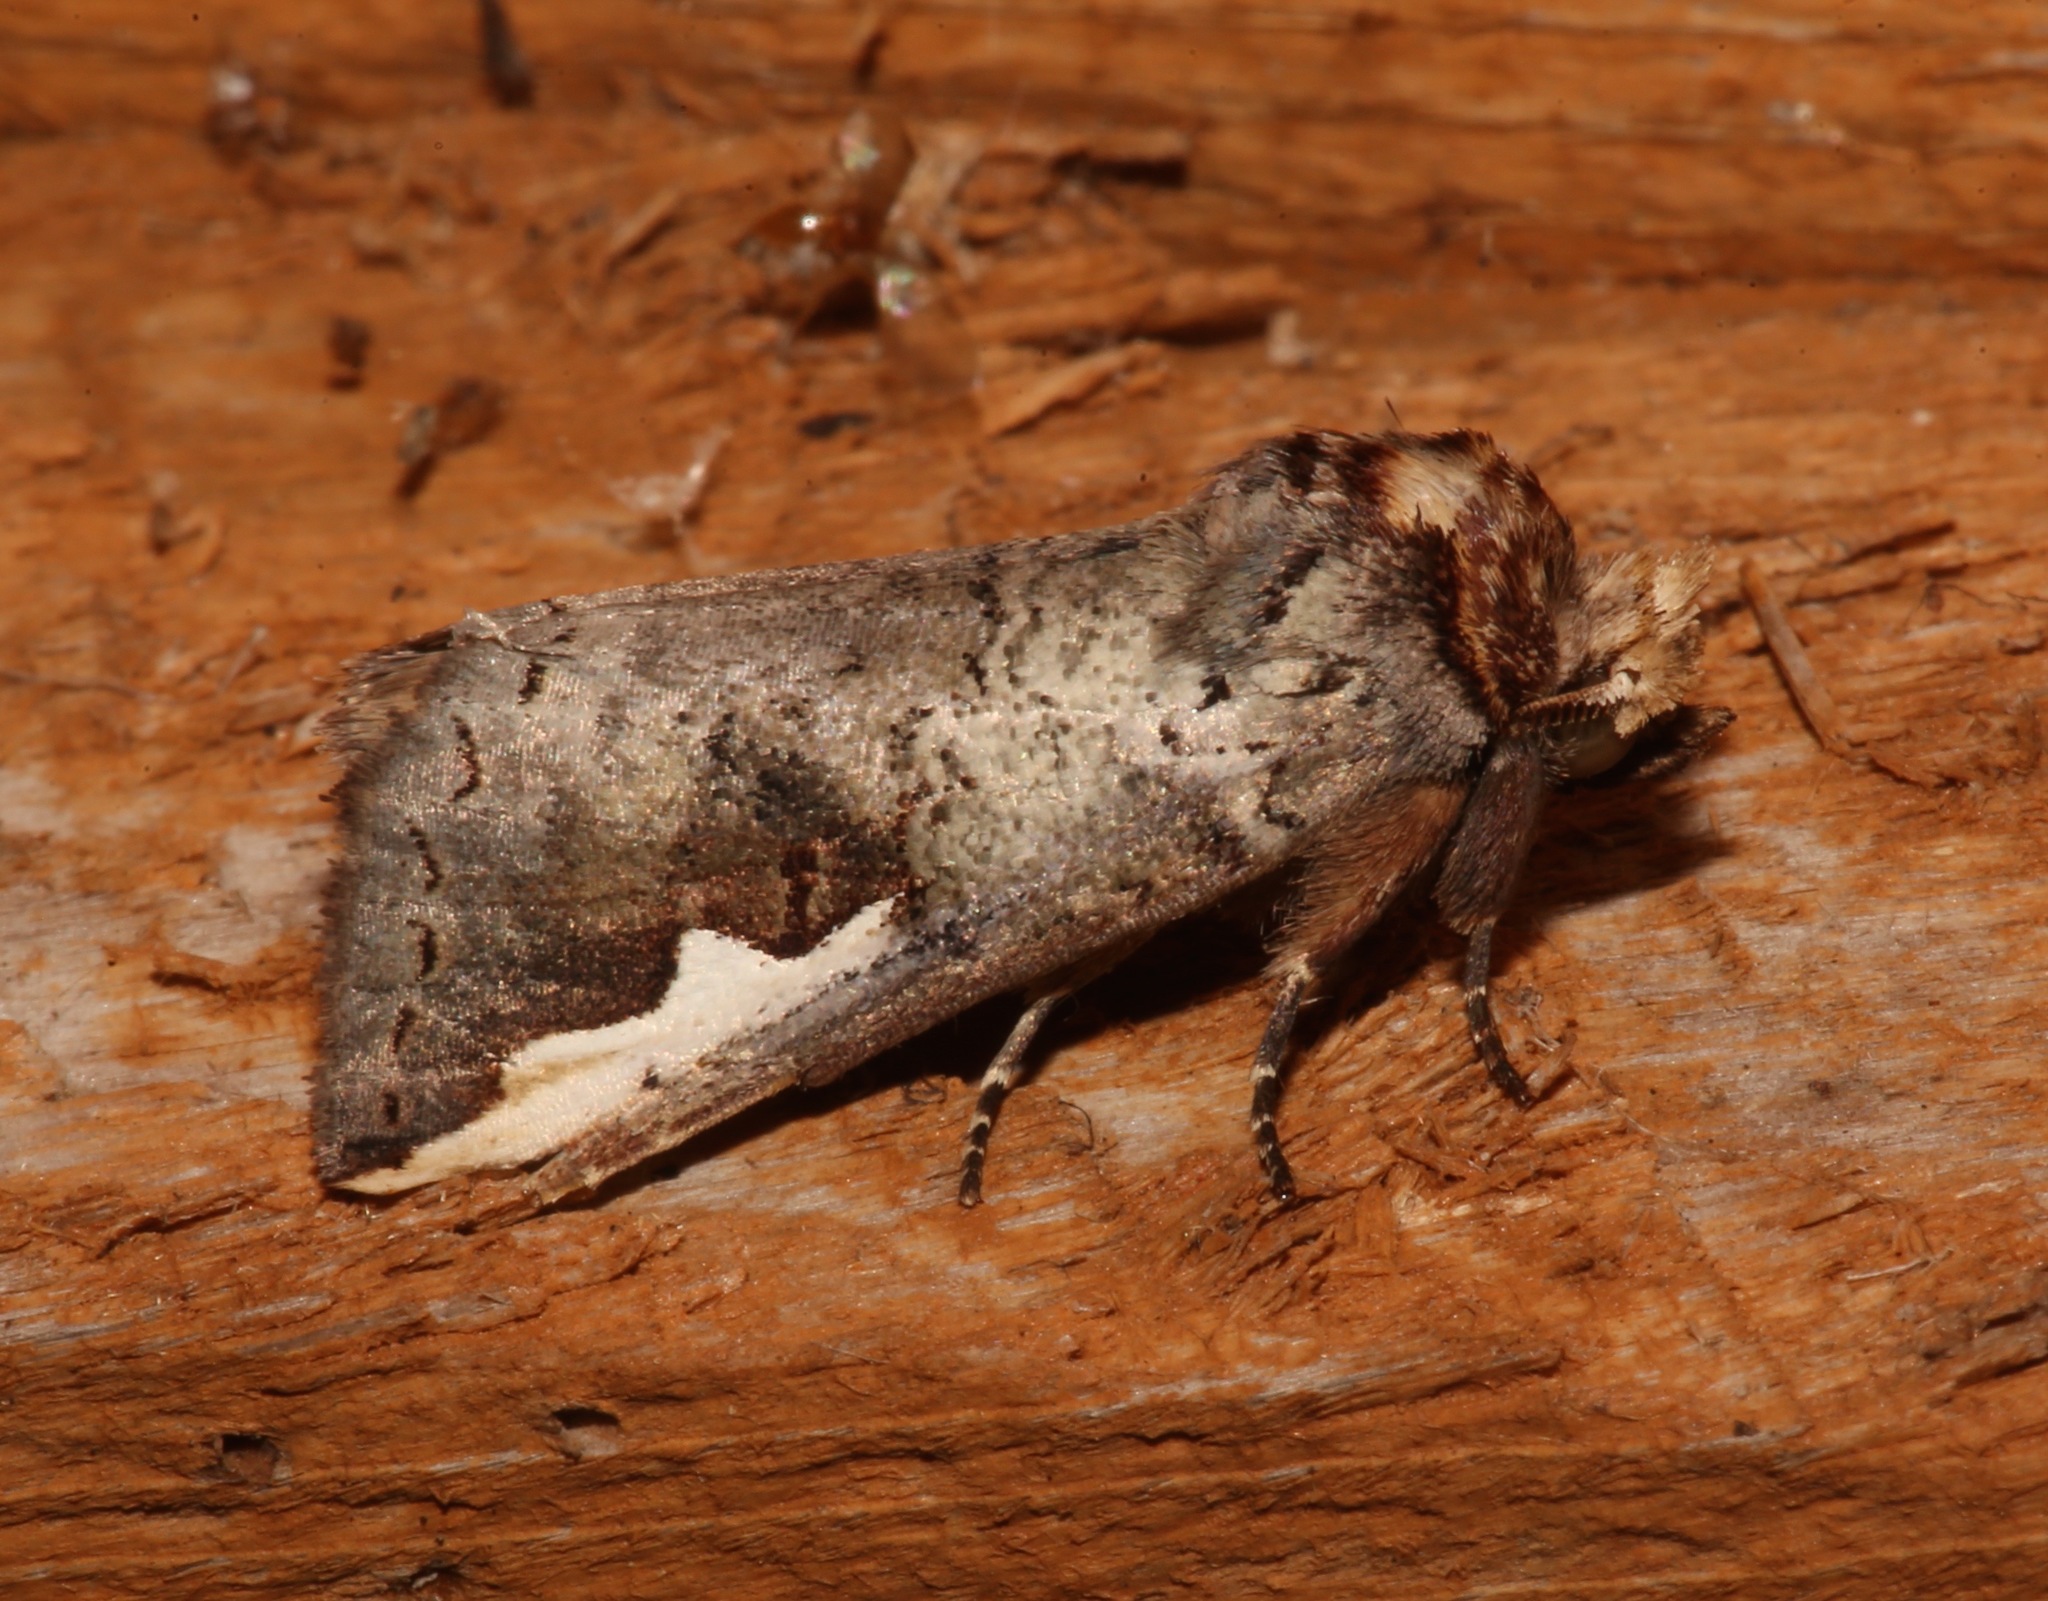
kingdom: Animalia
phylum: Arthropoda
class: Insecta
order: Lepidoptera
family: Notodontidae
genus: Symmerista
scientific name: Symmerista albifrons
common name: White-headed prominent
